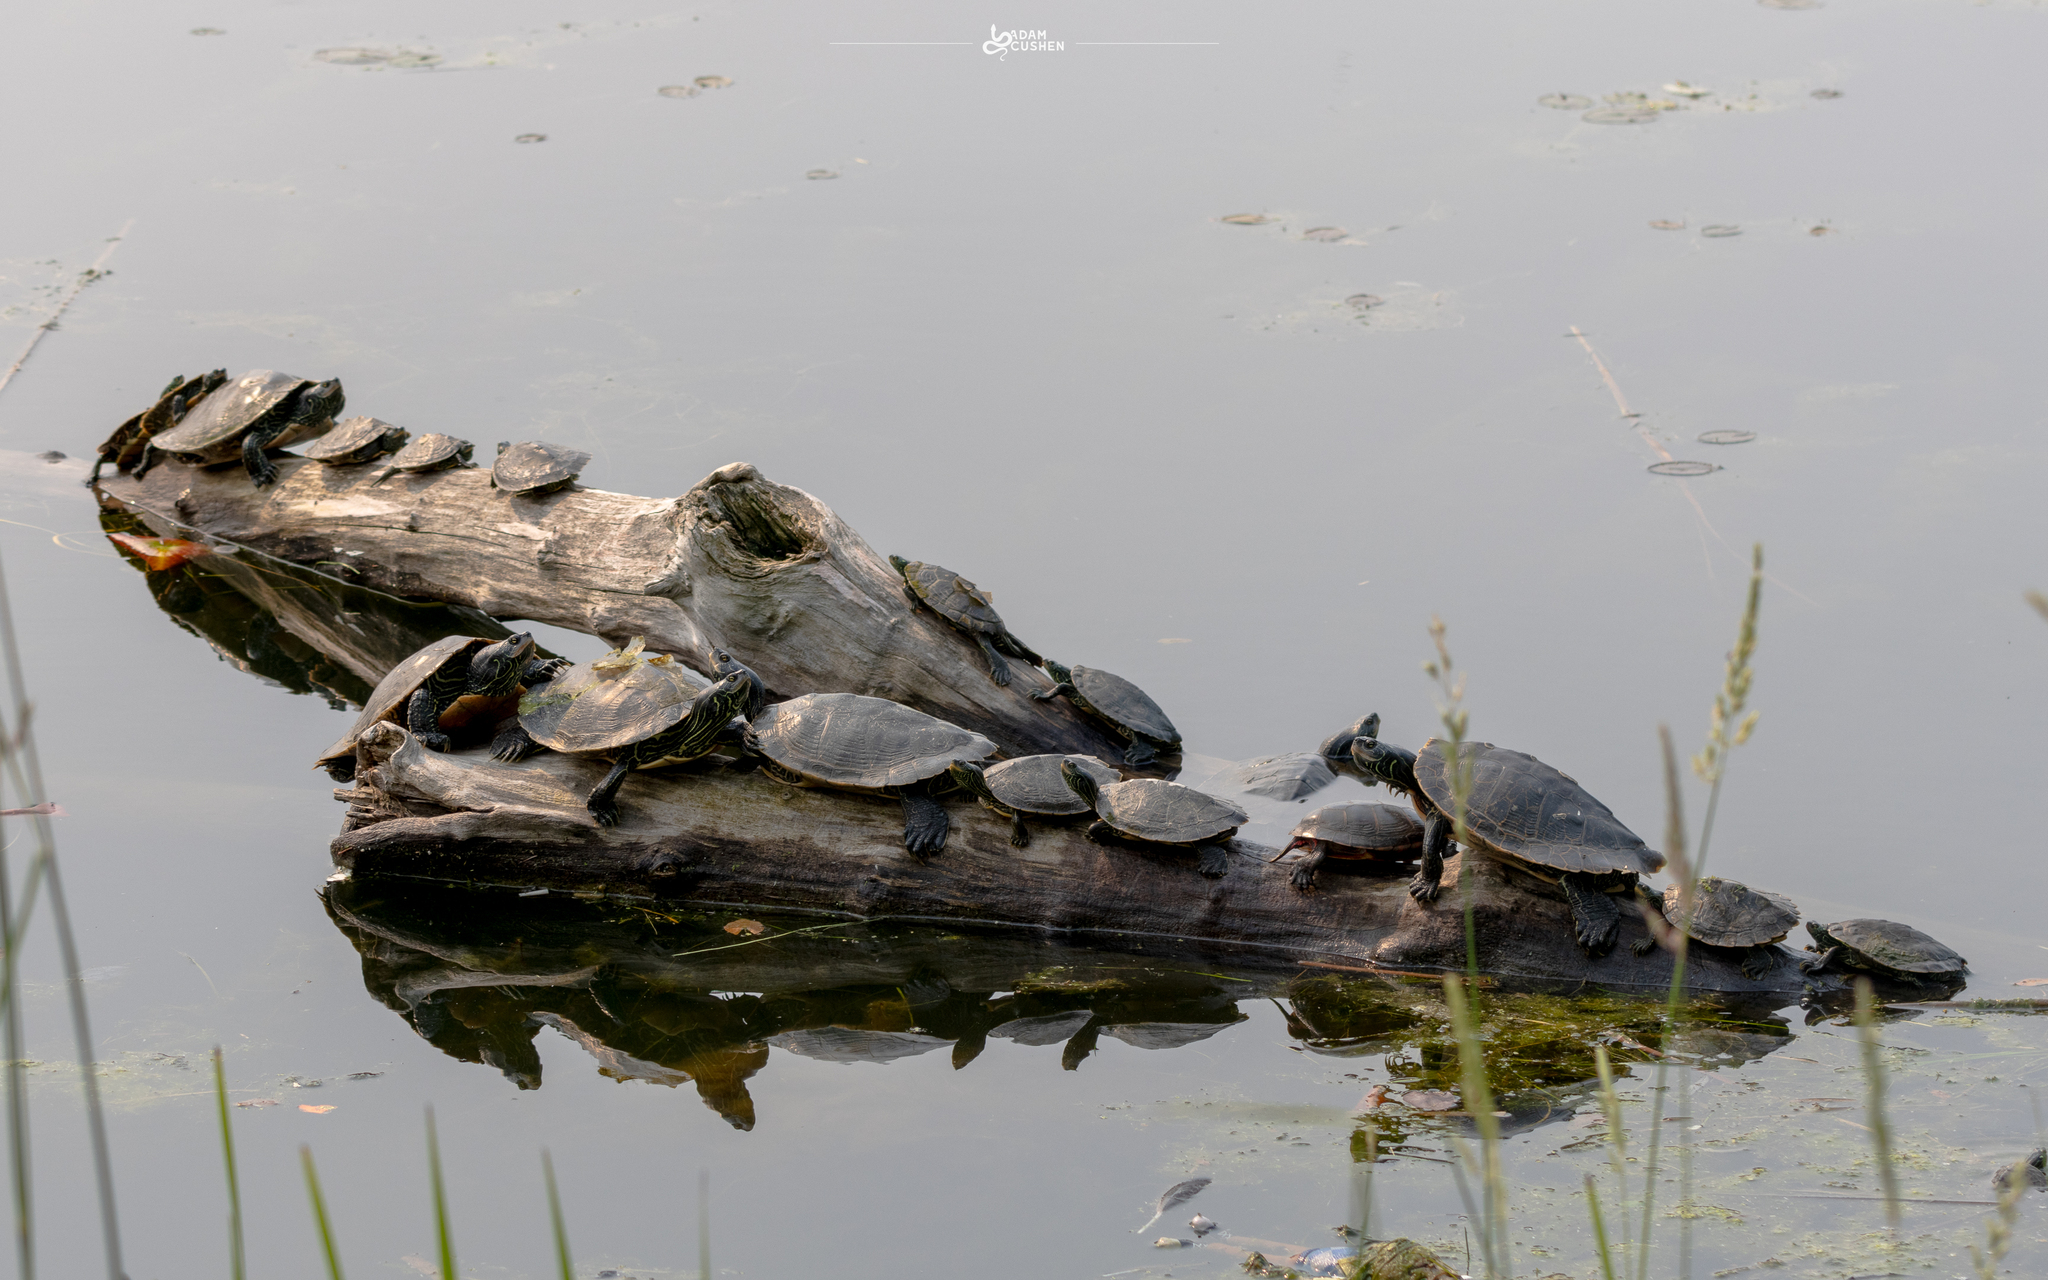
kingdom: Animalia
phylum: Chordata
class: Testudines
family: Emydidae
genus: Graptemys
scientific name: Graptemys geographica
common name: Common map turtle
